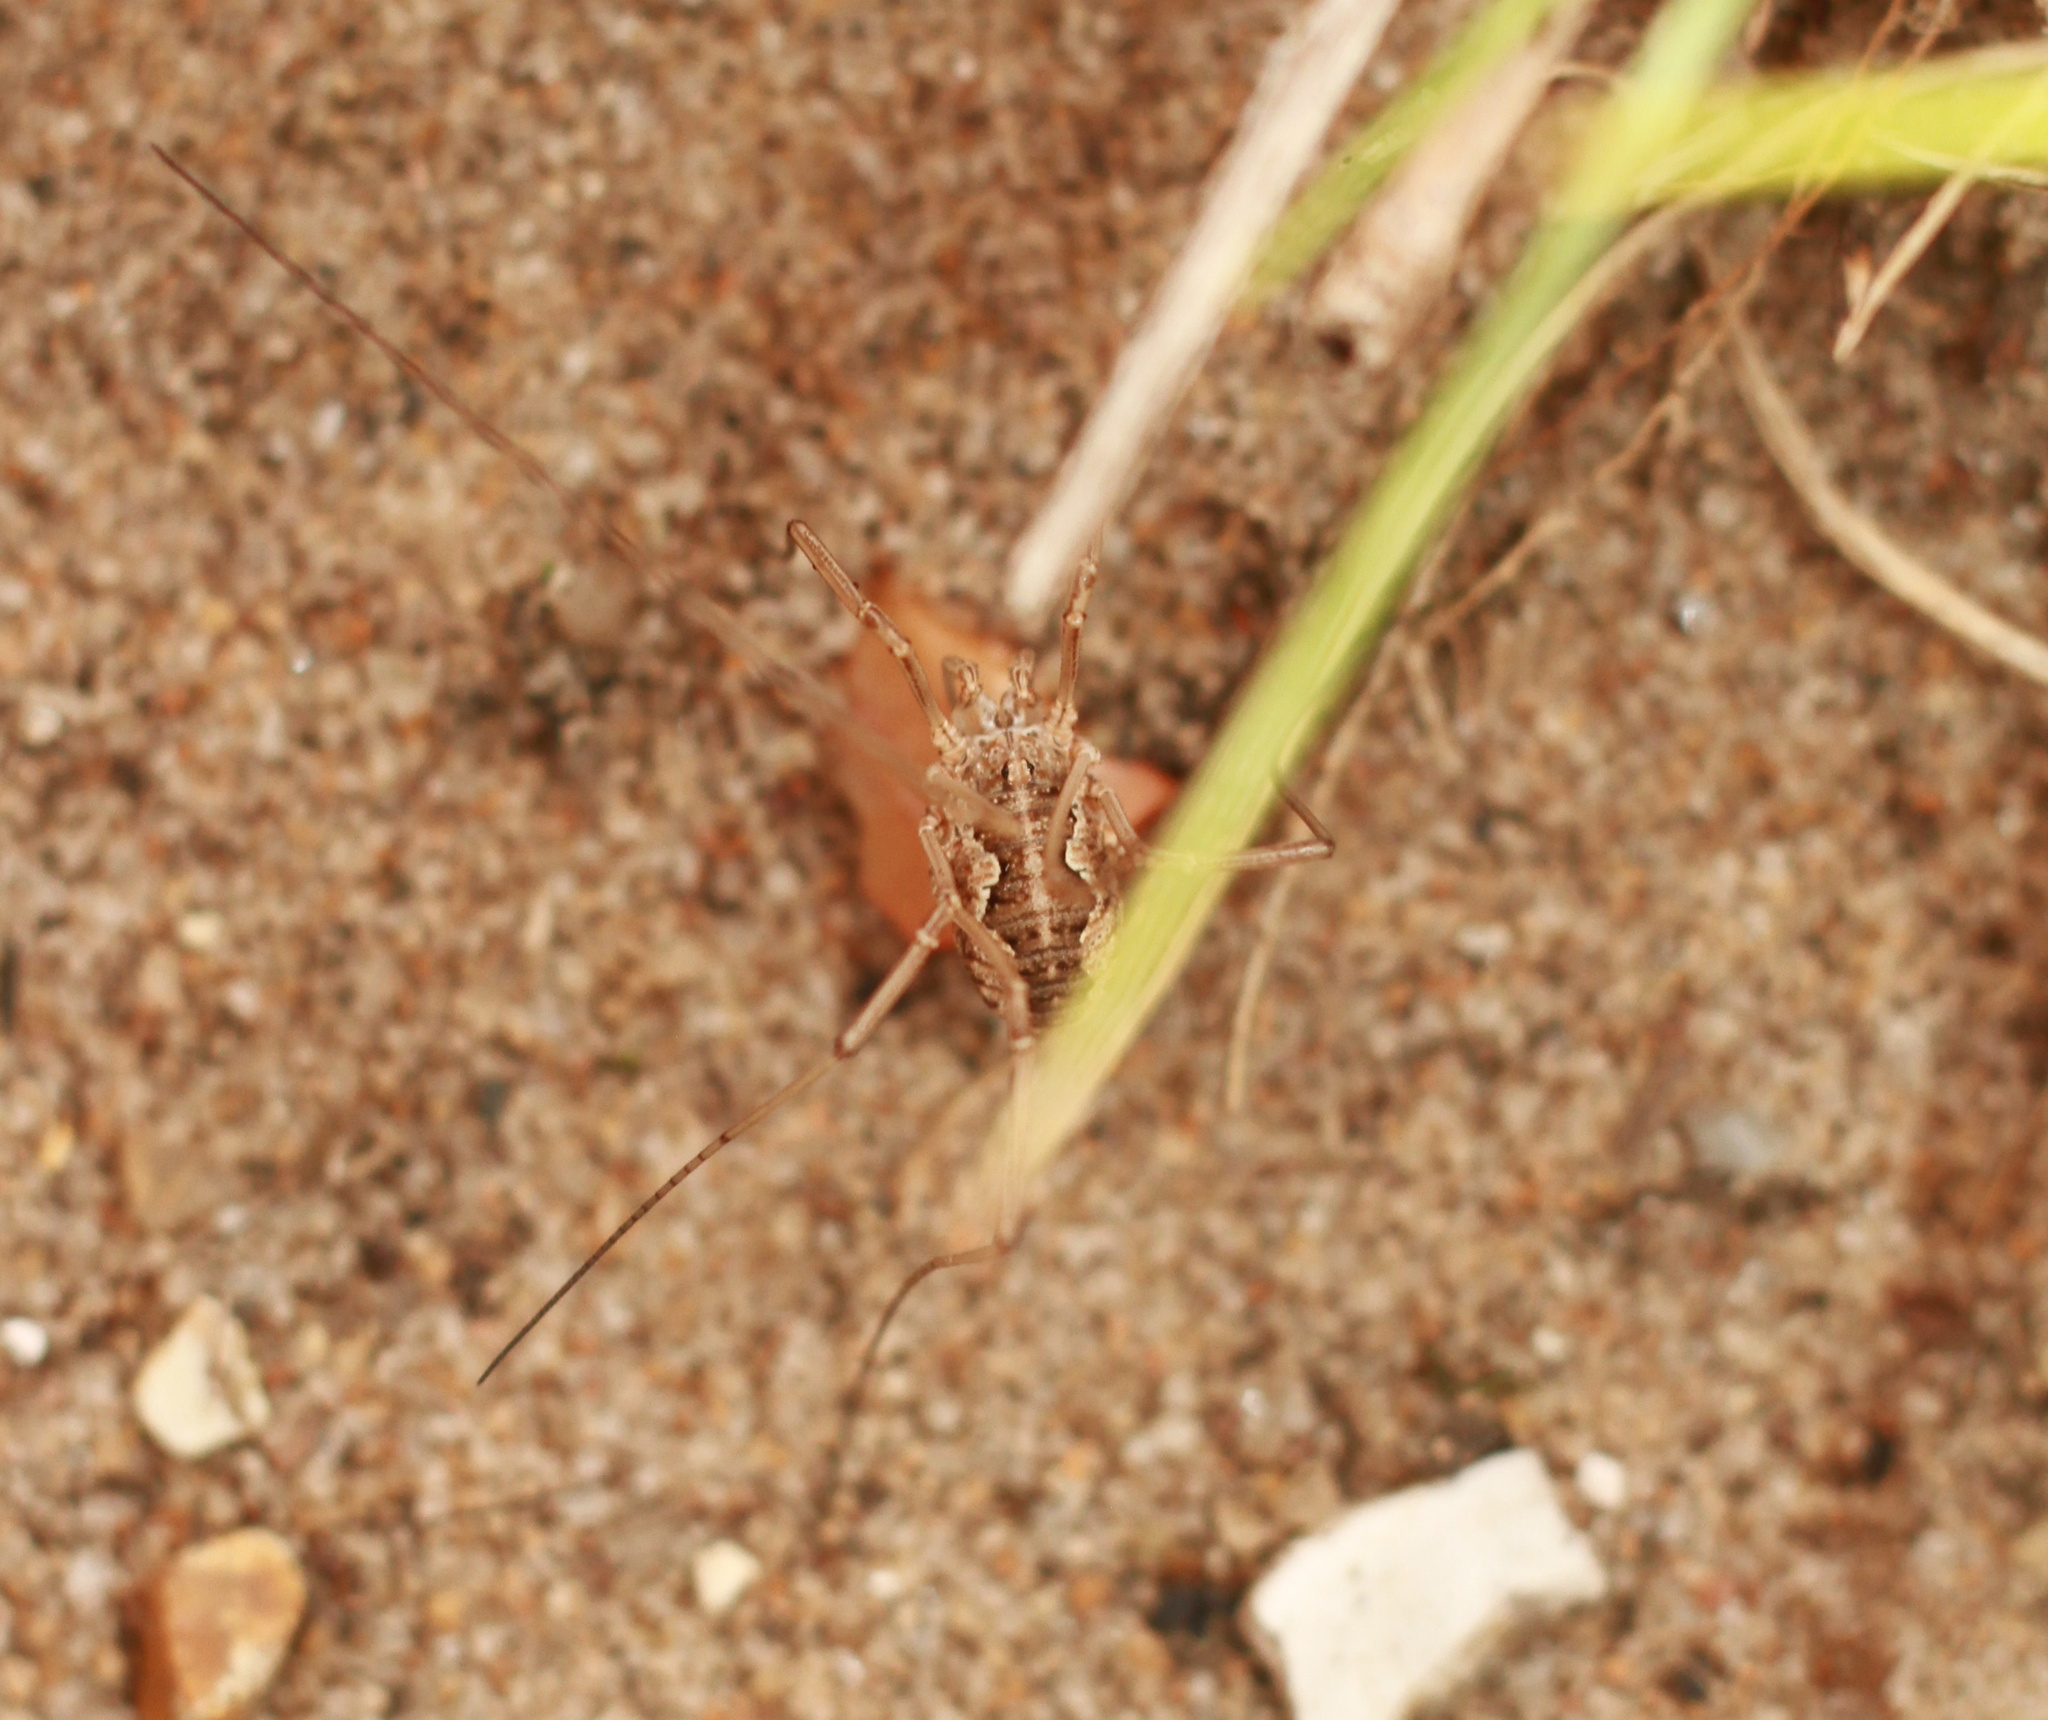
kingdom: Animalia
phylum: Arthropoda
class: Arachnida
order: Opiliones
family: Phalangiidae
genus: Phalangium
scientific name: Phalangium opilio
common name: Daddy longleg
